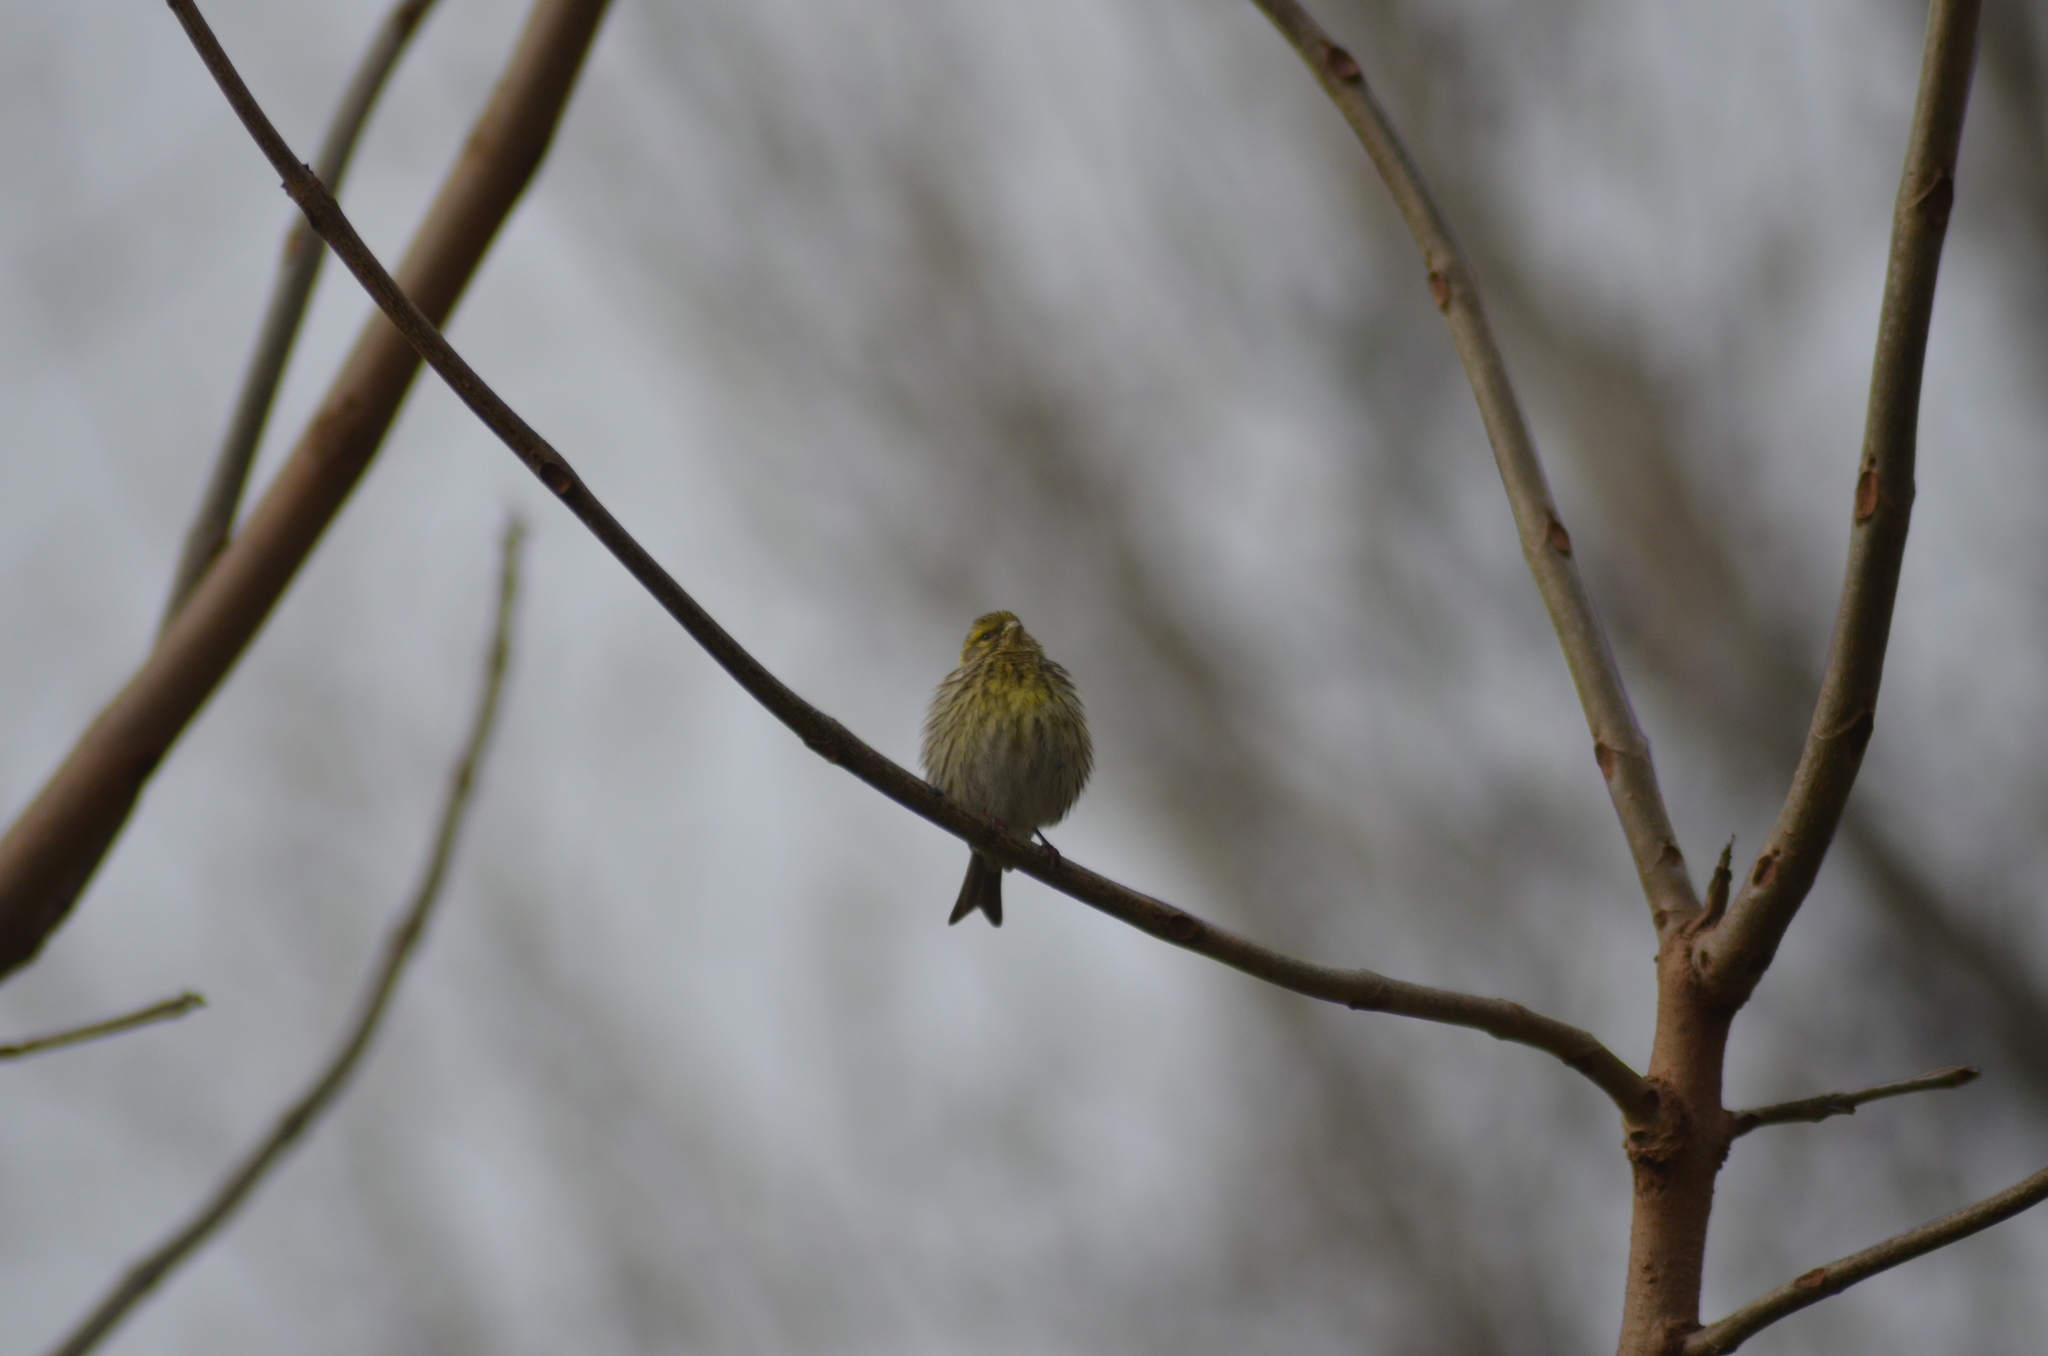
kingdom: Animalia
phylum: Chordata
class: Aves
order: Passeriformes
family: Fringillidae
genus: Serinus
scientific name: Serinus serinus
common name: European serin
